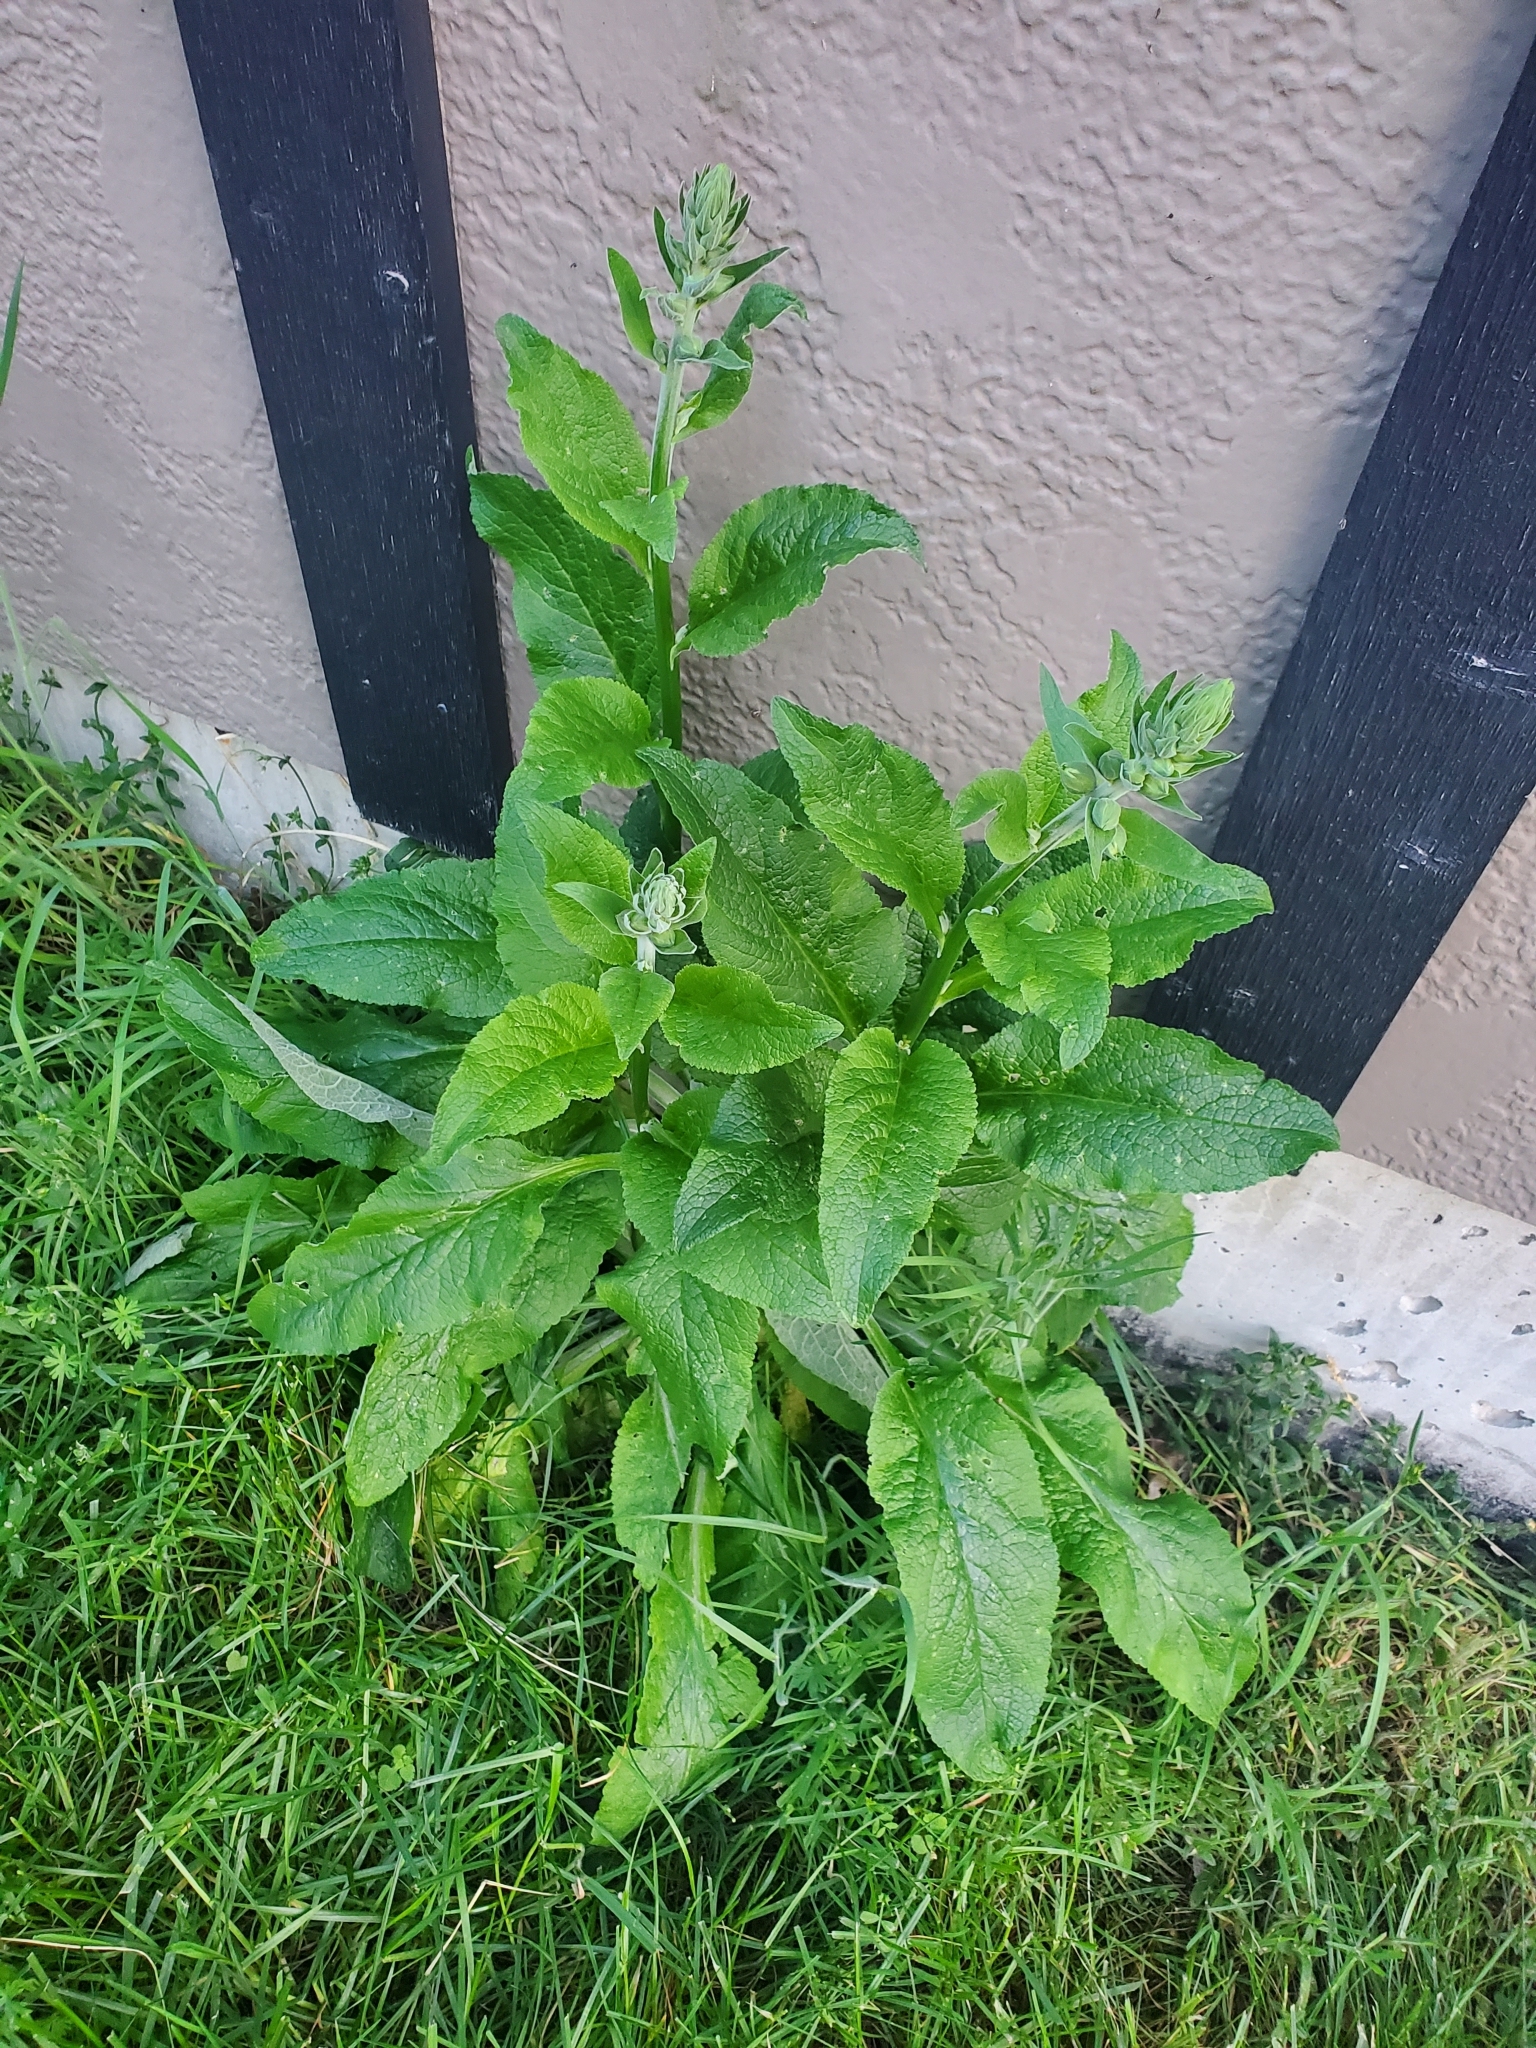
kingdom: Plantae
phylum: Tracheophyta
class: Magnoliopsida
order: Lamiales
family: Plantaginaceae
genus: Digitalis
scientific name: Digitalis purpurea
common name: Foxglove
